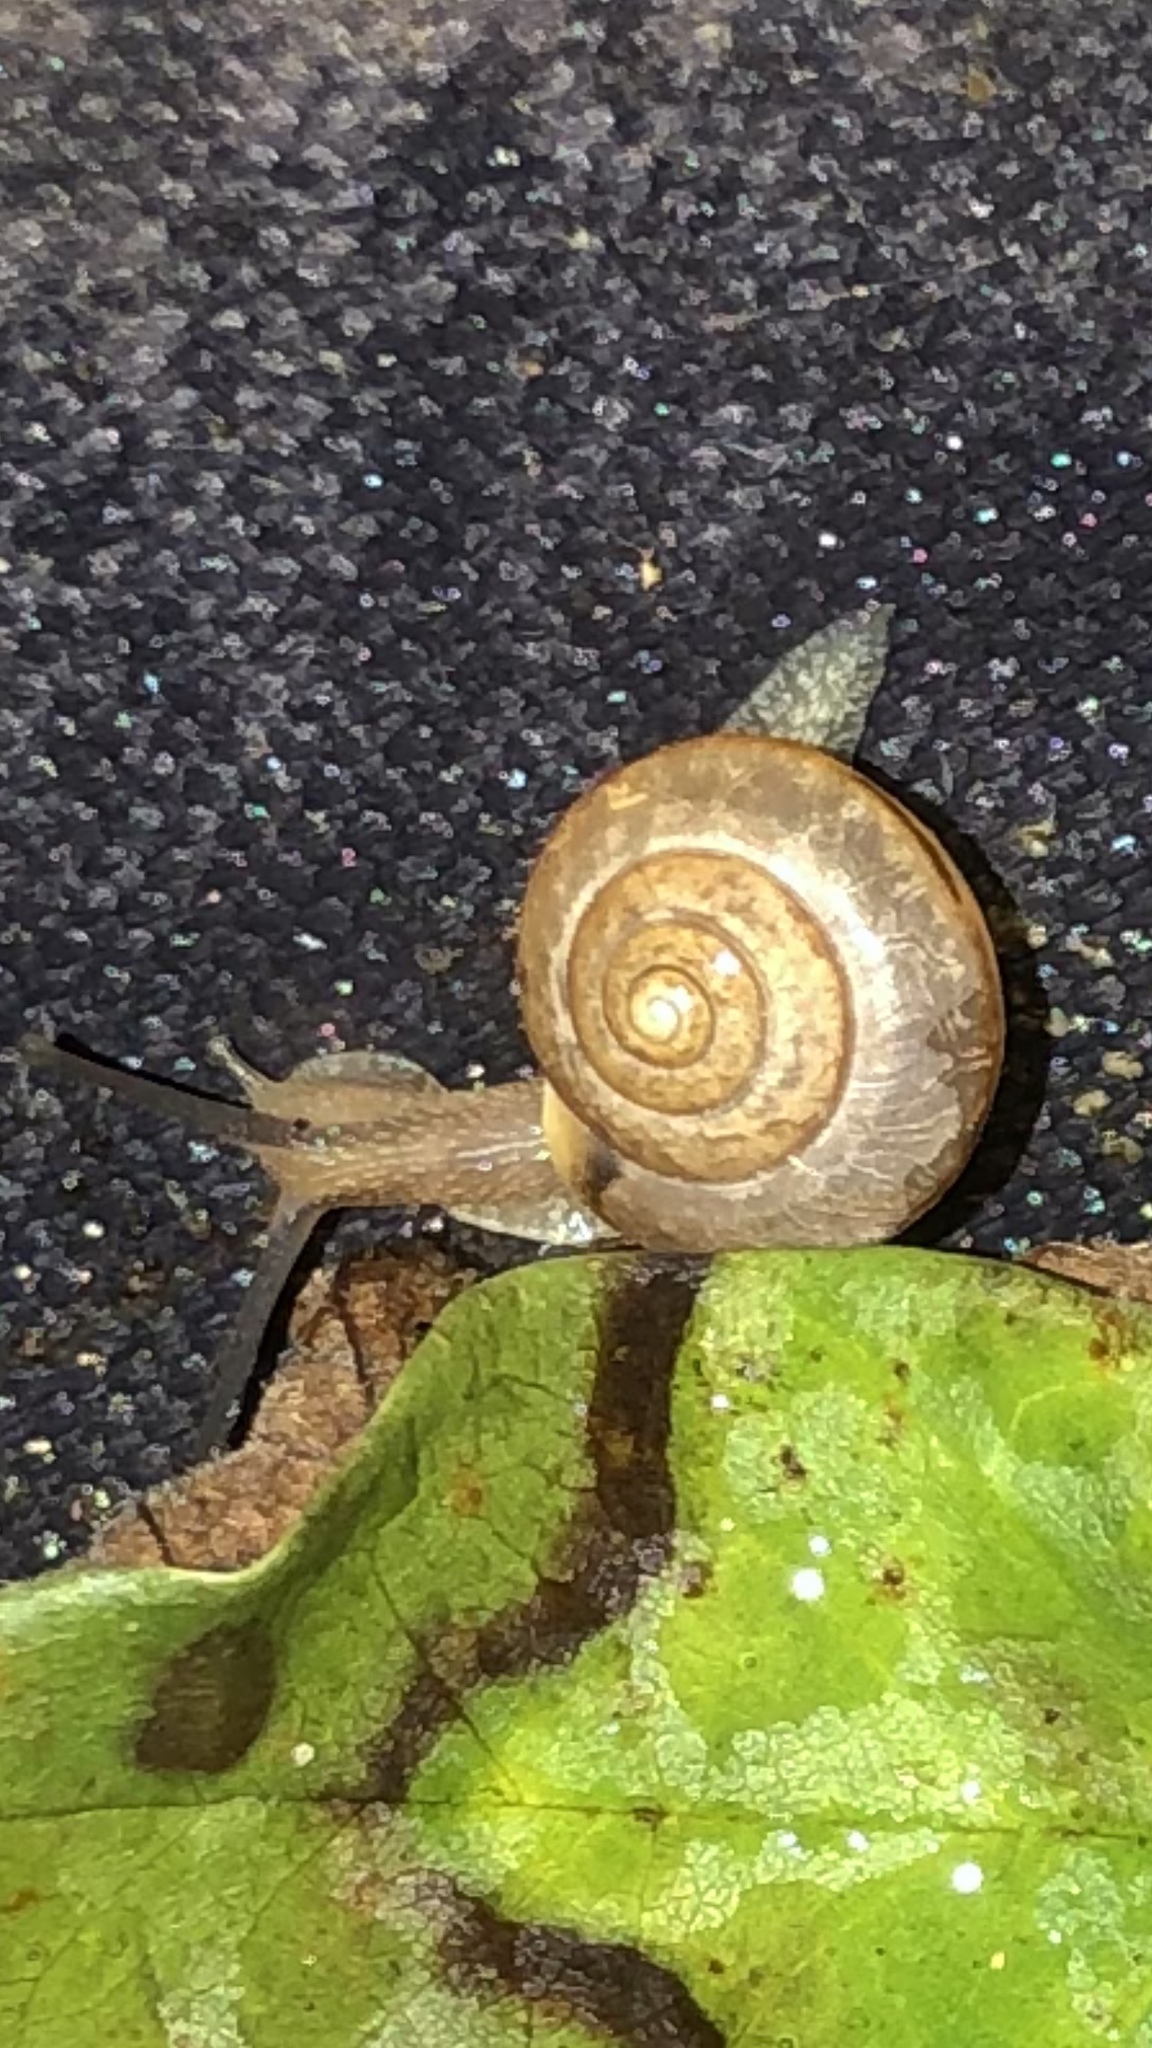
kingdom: Animalia
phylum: Mollusca
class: Gastropoda
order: Stylommatophora
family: Camaenidae
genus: Bradybaena
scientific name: Bradybaena similaris
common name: Asian trampsnail
